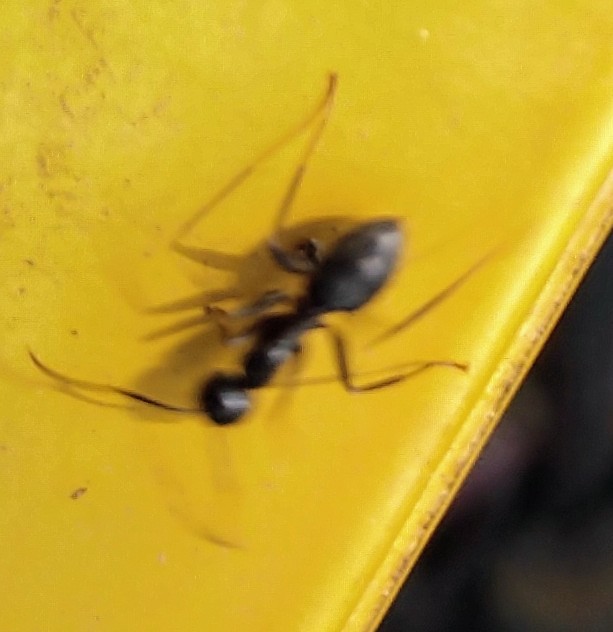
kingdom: Animalia
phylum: Arthropoda
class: Insecta
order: Hymenoptera
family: Formicidae
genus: Camponotus
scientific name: Camponotus pennsylvanicus
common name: Black carpenter ant
